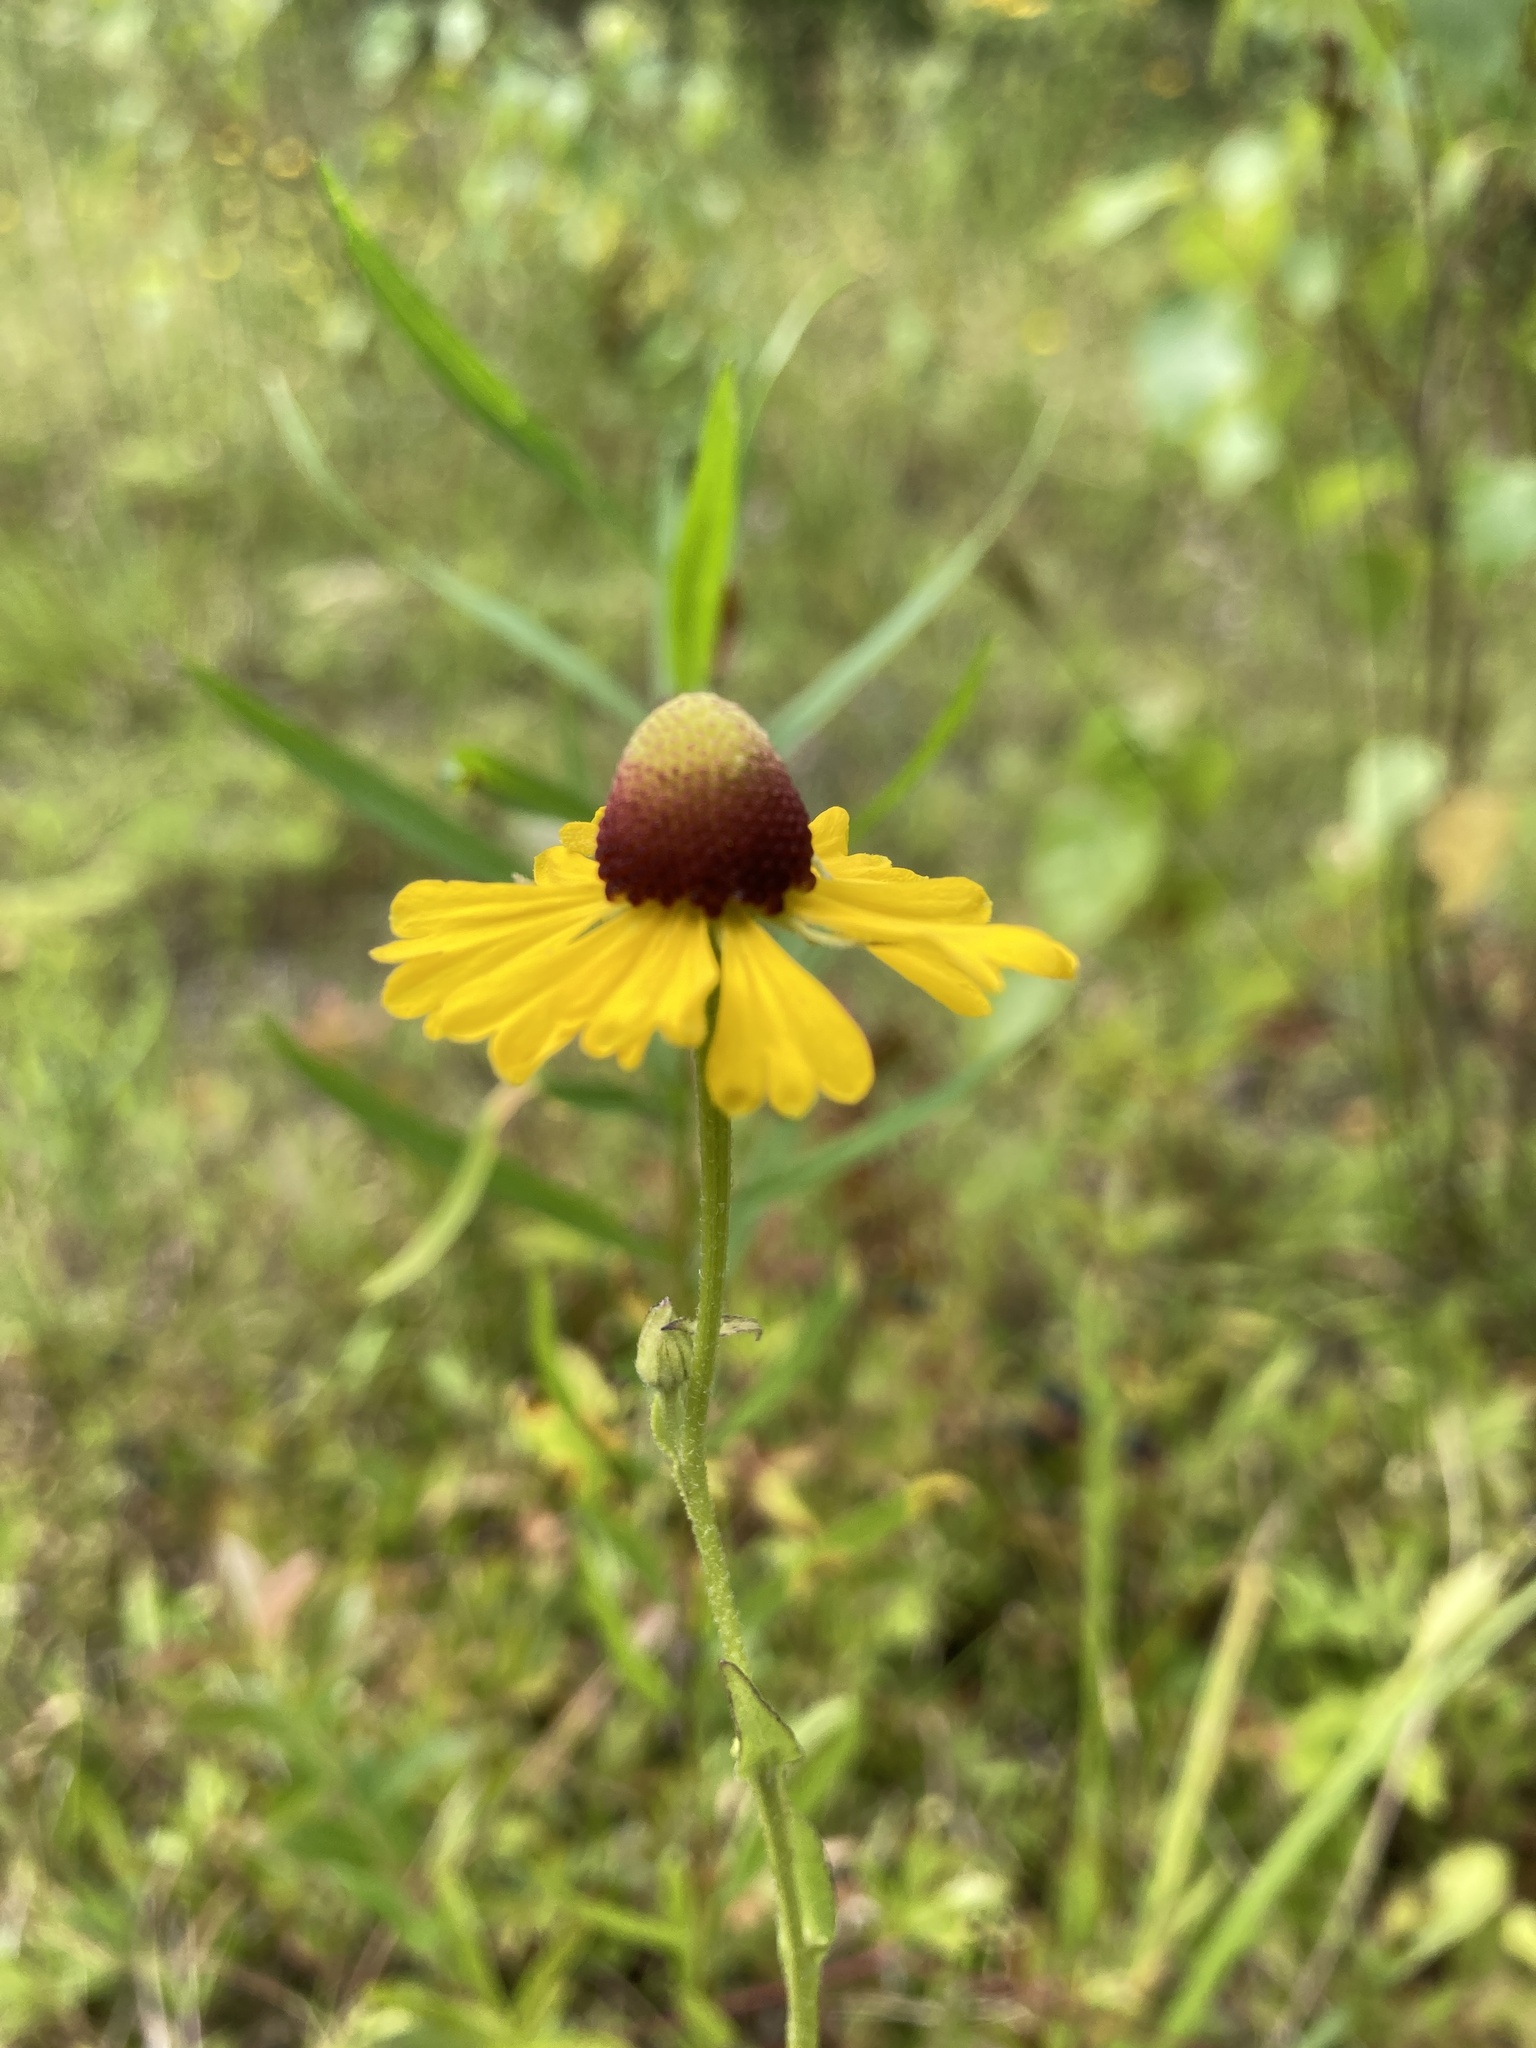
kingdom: Plantae
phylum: Tracheophyta
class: Magnoliopsida
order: Asterales
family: Asteraceae
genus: Helenium
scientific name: Helenium flexuosum
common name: Naked-flowered sneezeweed
